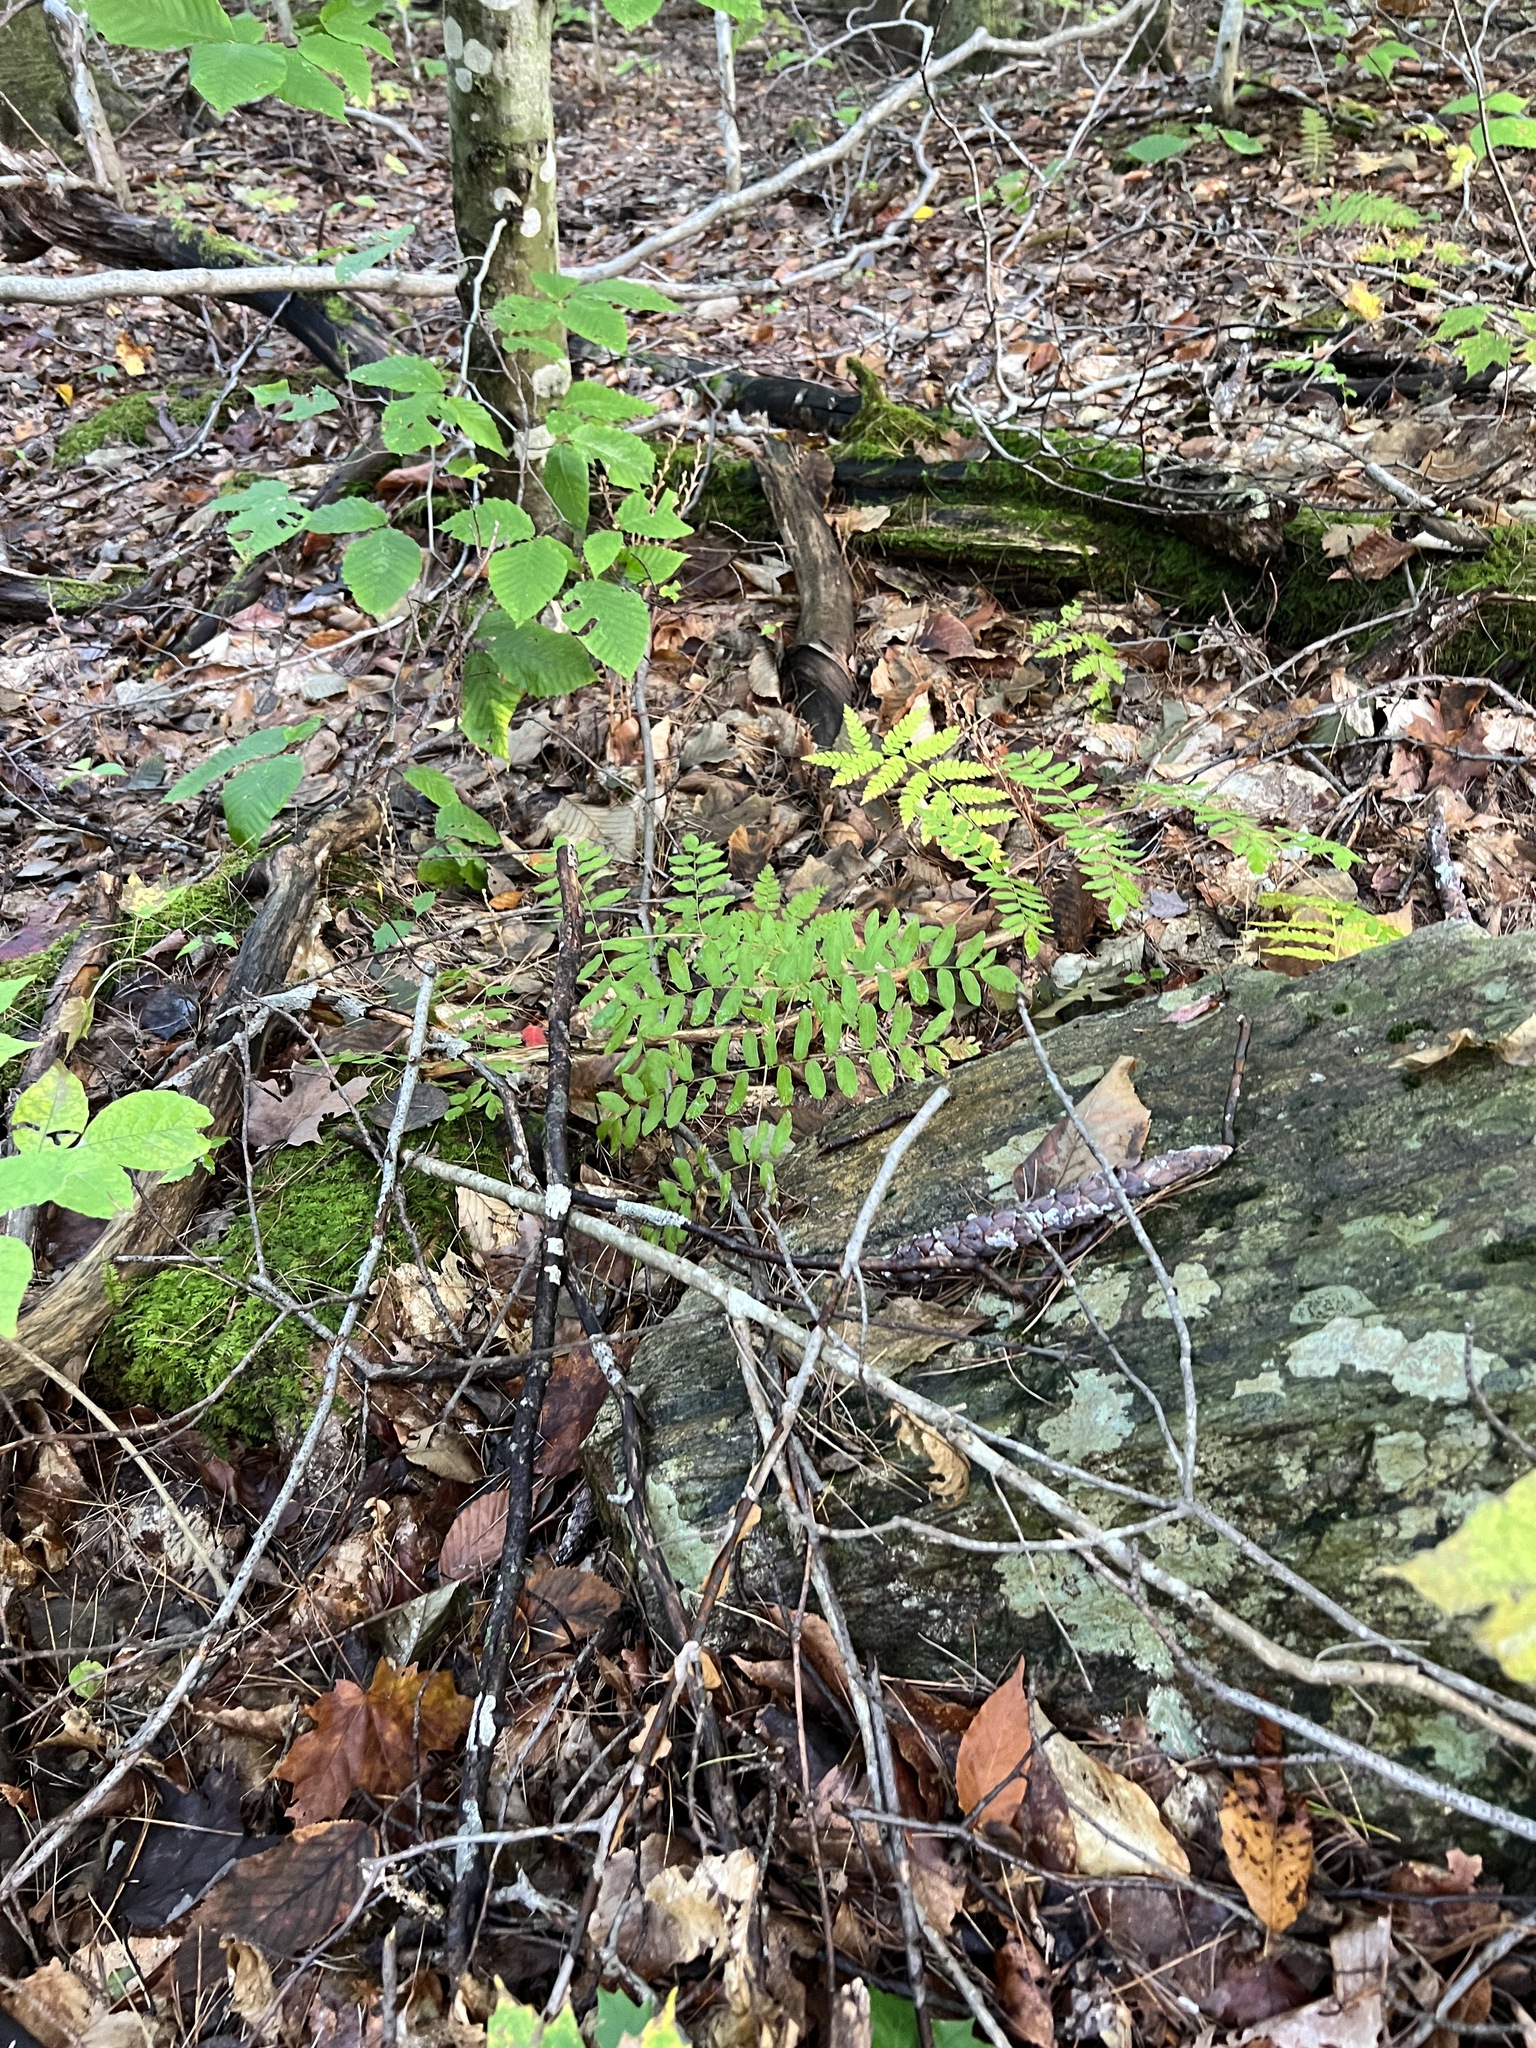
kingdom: Plantae
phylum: Tracheophyta
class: Polypodiopsida
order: Osmundales
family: Osmundaceae
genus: Osmunda
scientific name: Osmunda spectabilis
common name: American royal fern
